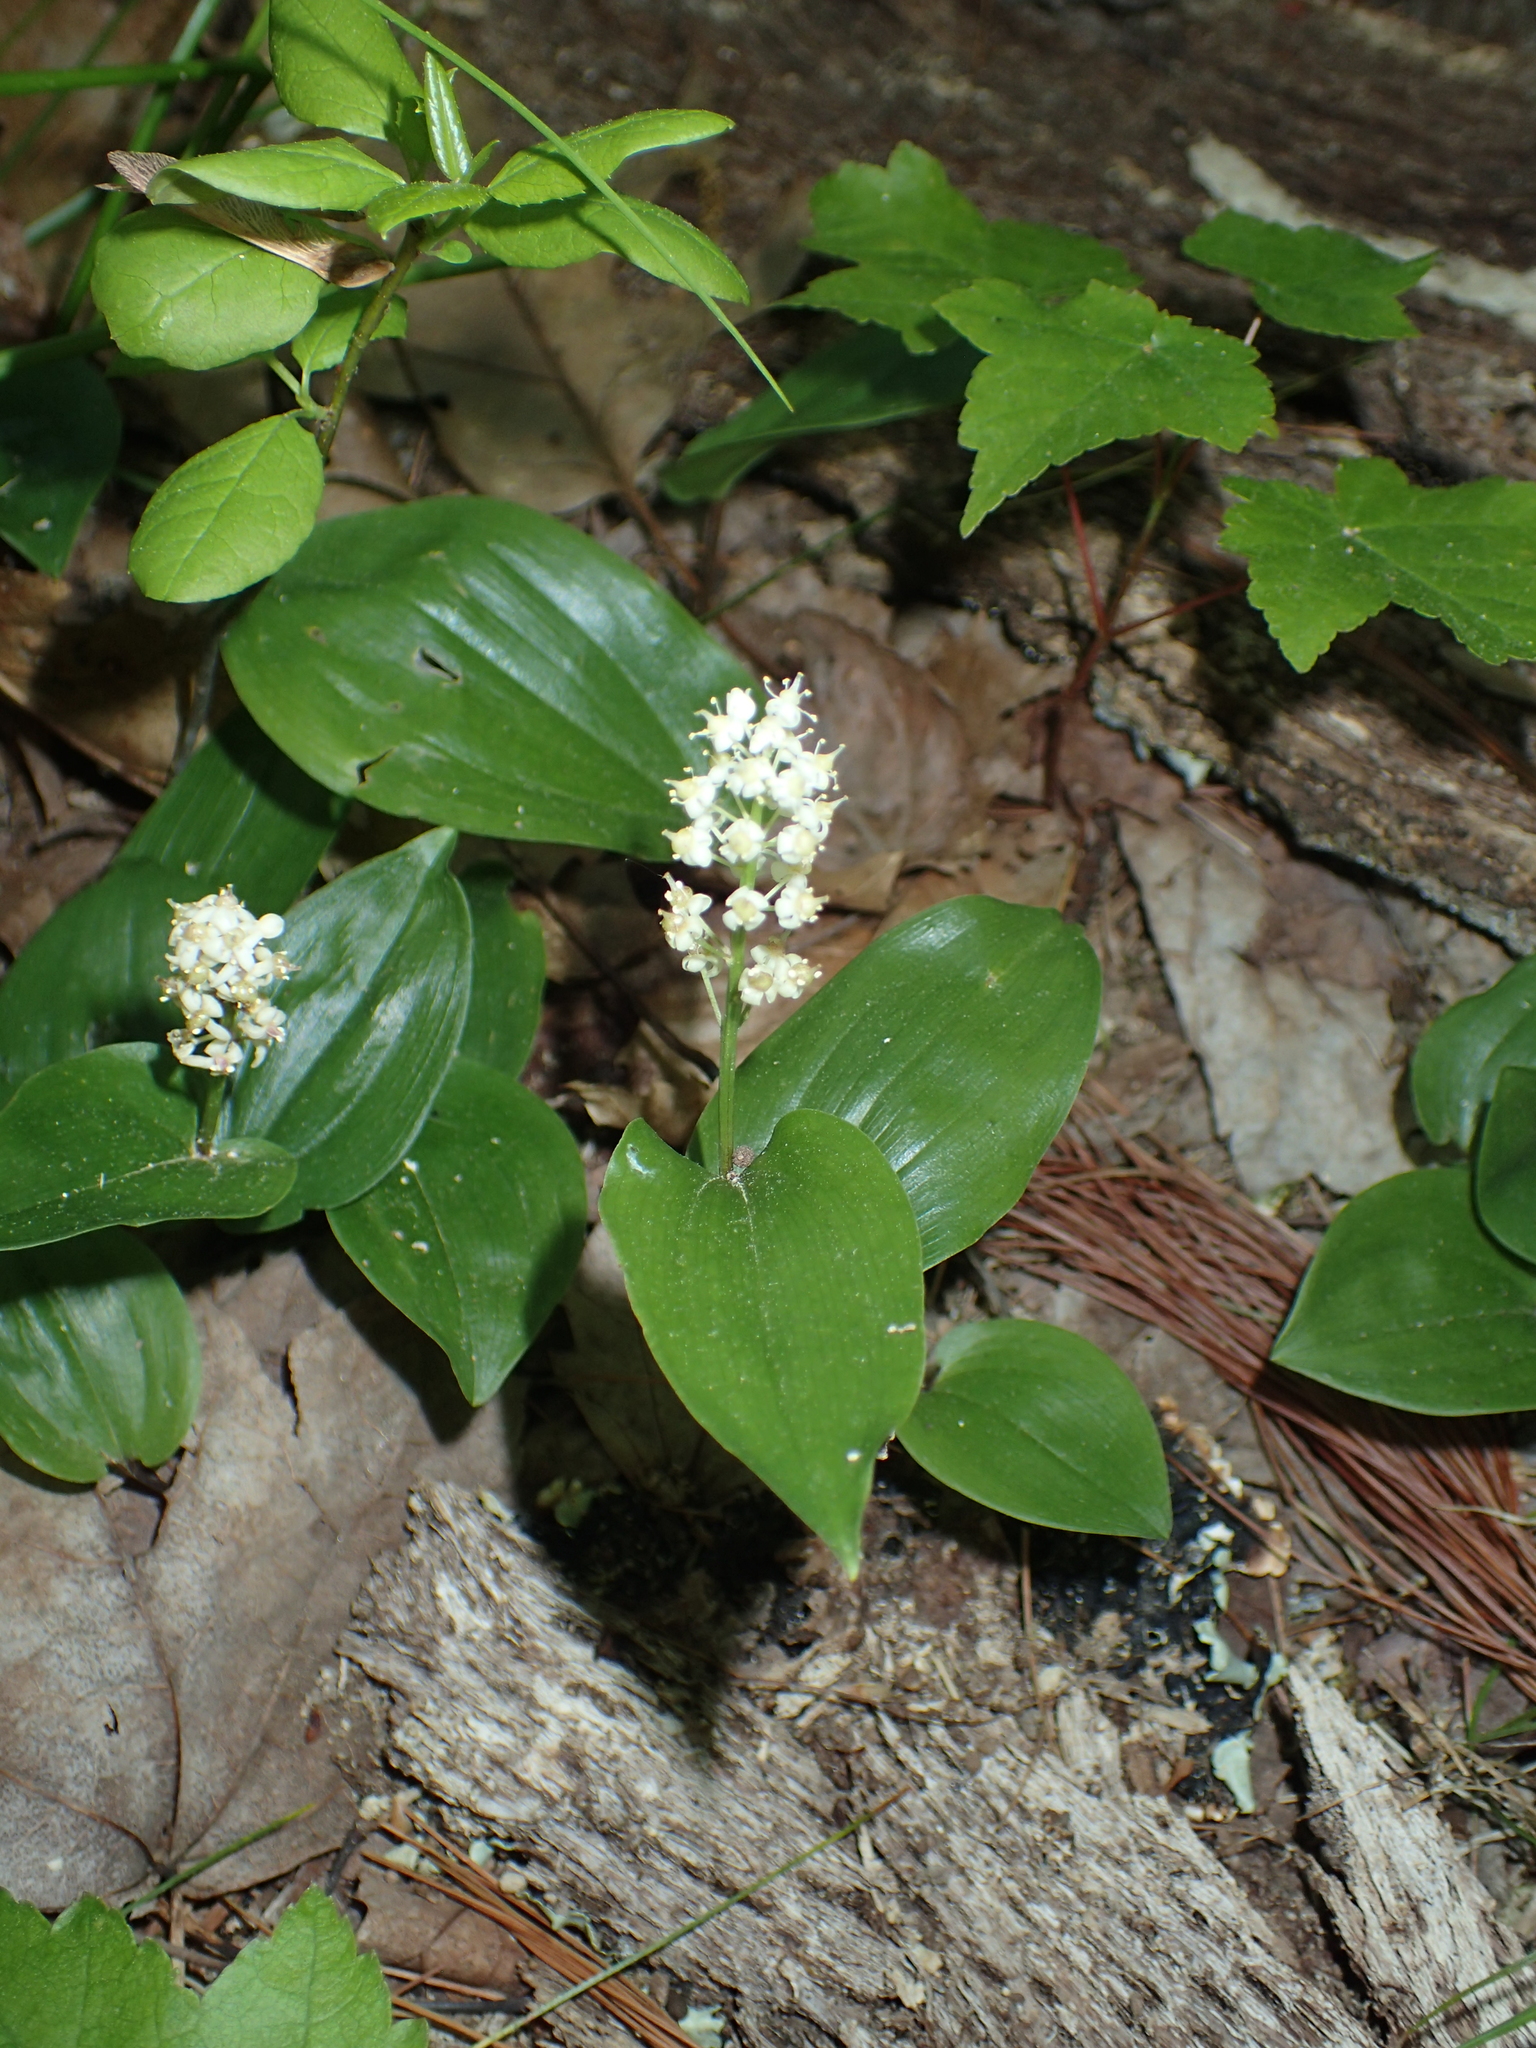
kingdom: Plantae
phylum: Tracheophyta
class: Liliopsida
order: Asparagales
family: Asparagaceae
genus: Maianthemum
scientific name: Maianthemum canadense
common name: False lily-of-the-valley
